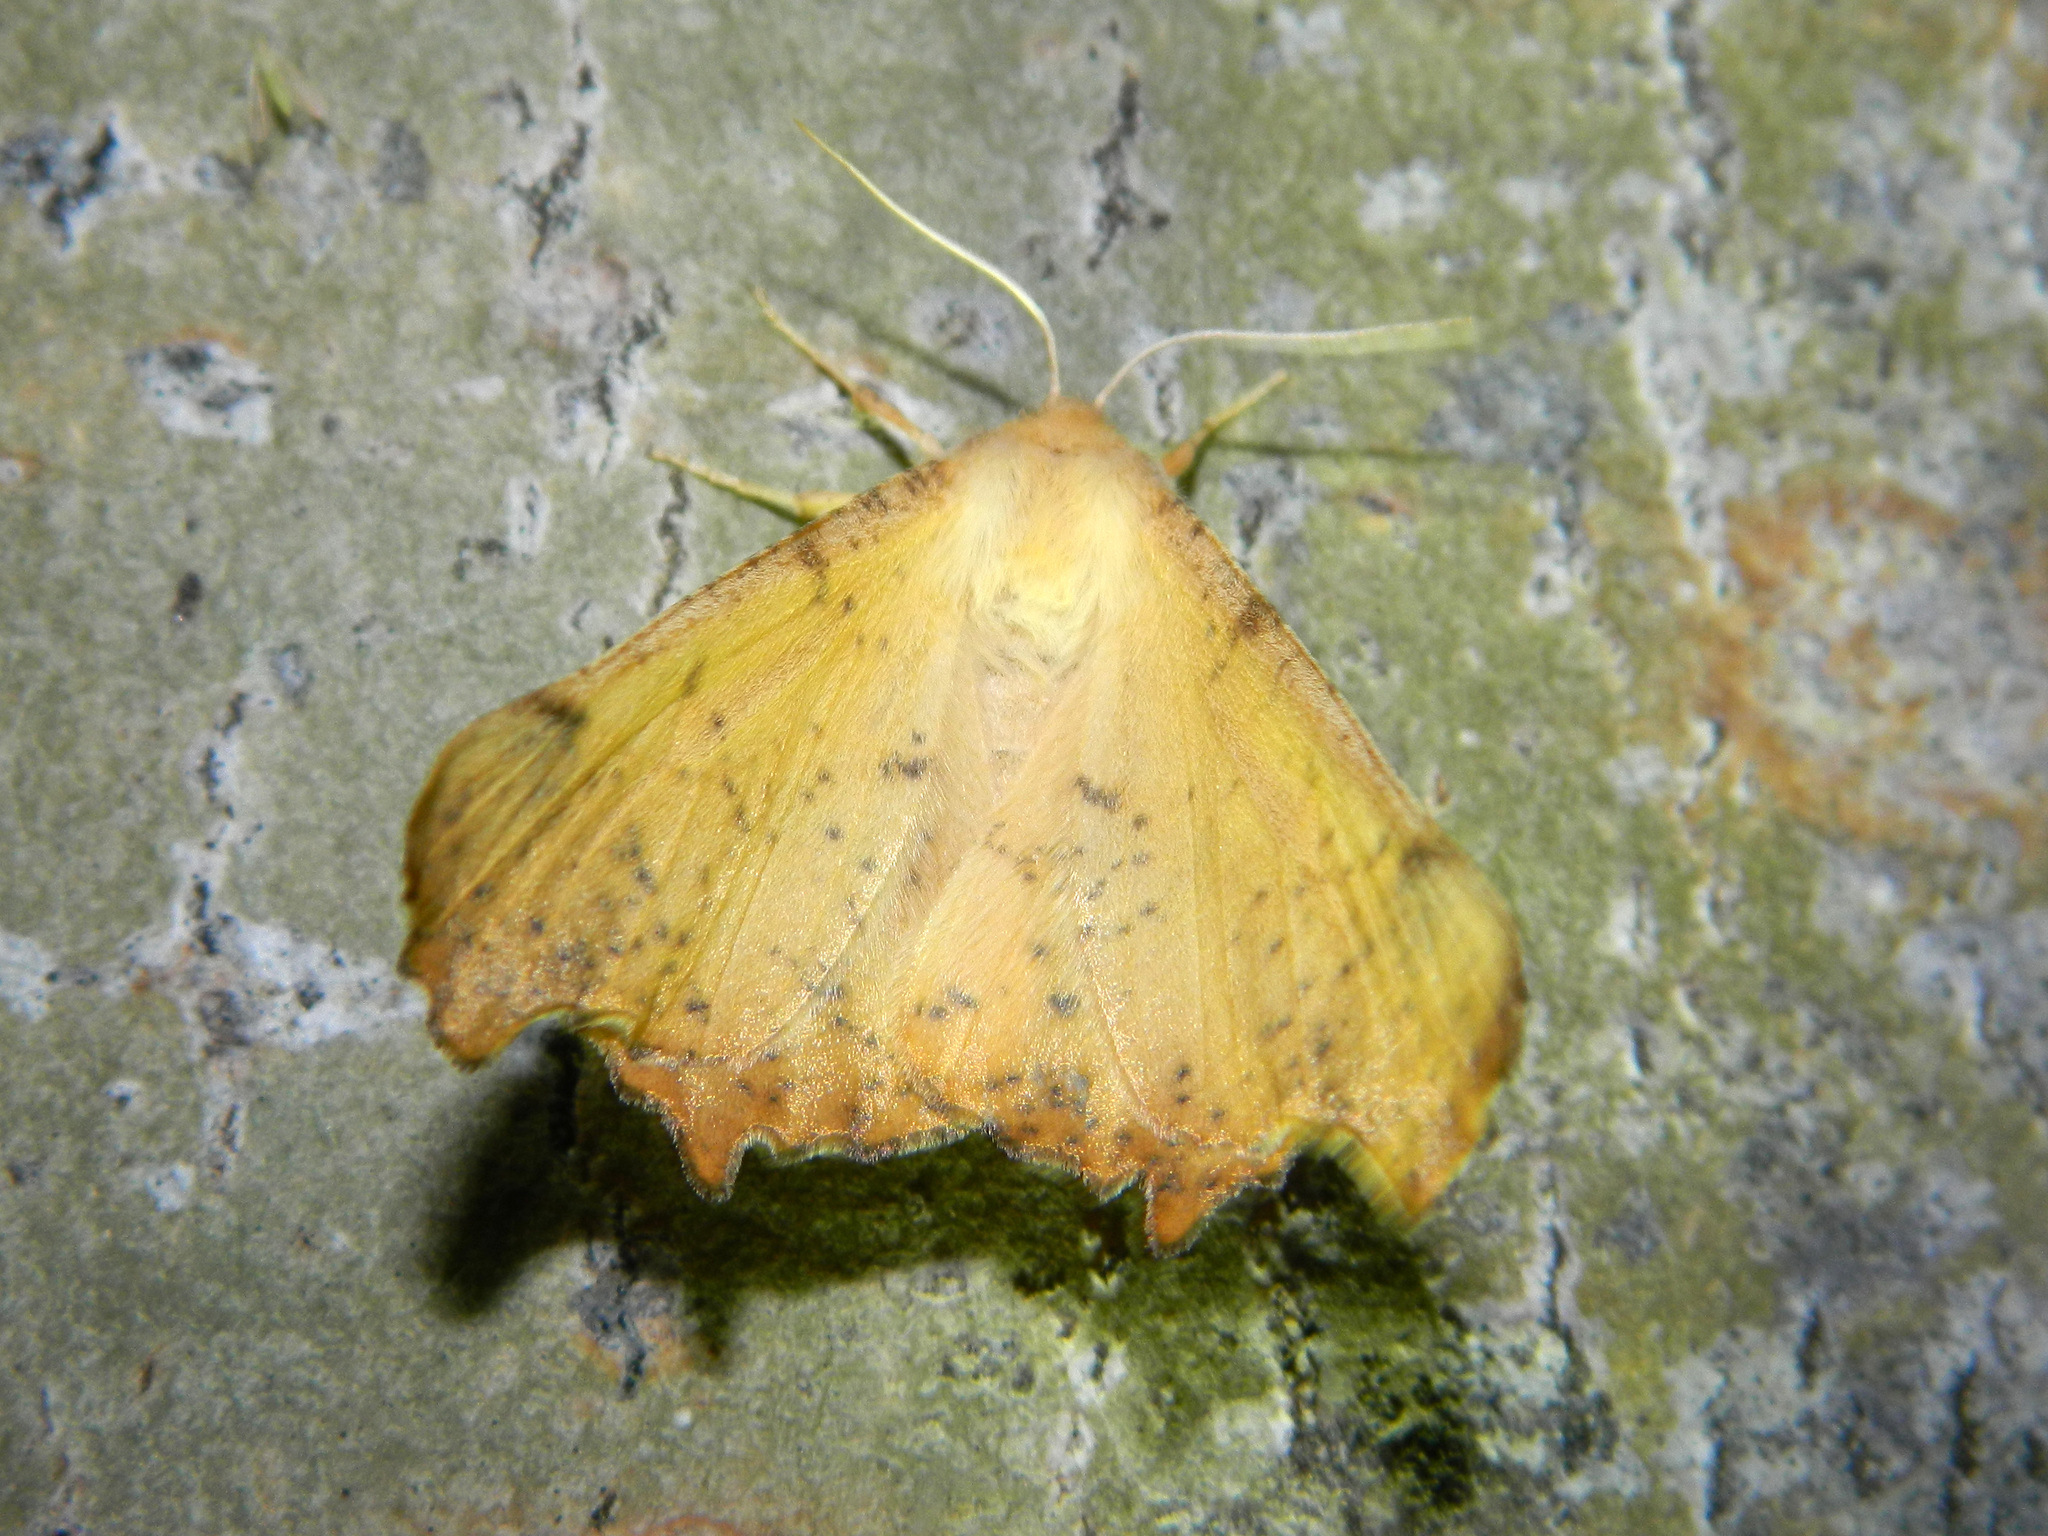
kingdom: Animalia
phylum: Arthropoda
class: Insecta
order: Lepidoptera
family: Geometridae
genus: Ennomos
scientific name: Ennomos magnaria
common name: Maple spanworm
